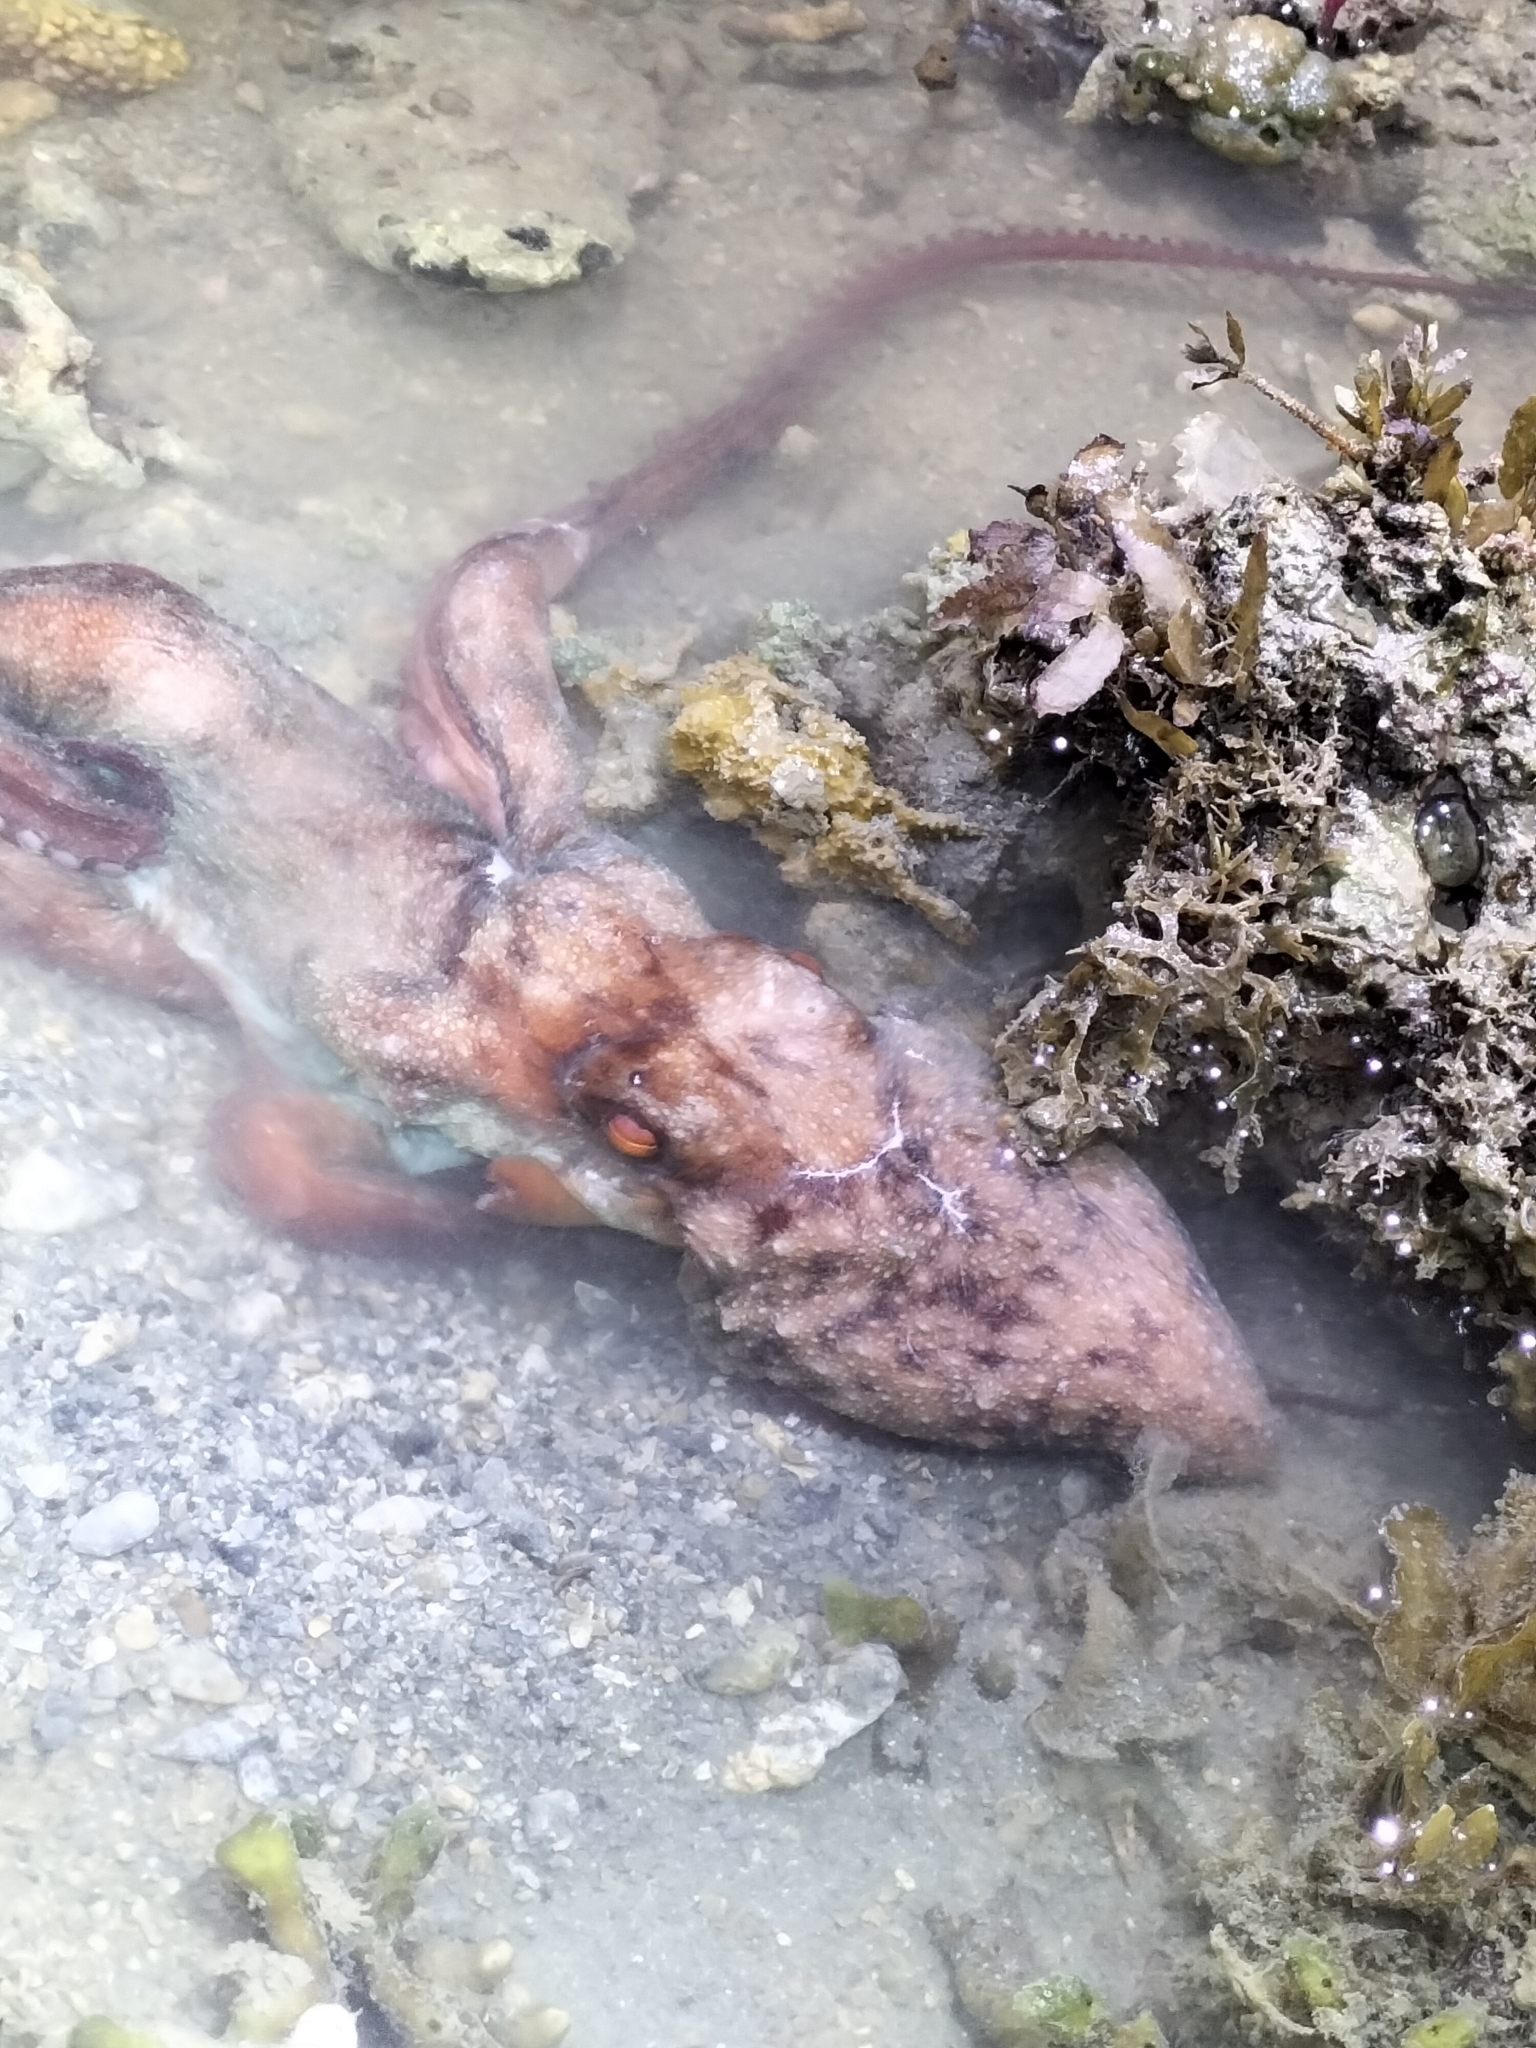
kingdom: Animalia
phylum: Mollusca
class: Cephalopoda
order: Octopoda
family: Octopodidae
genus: Callistoctopus
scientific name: Callistoctopus dierythraeus
